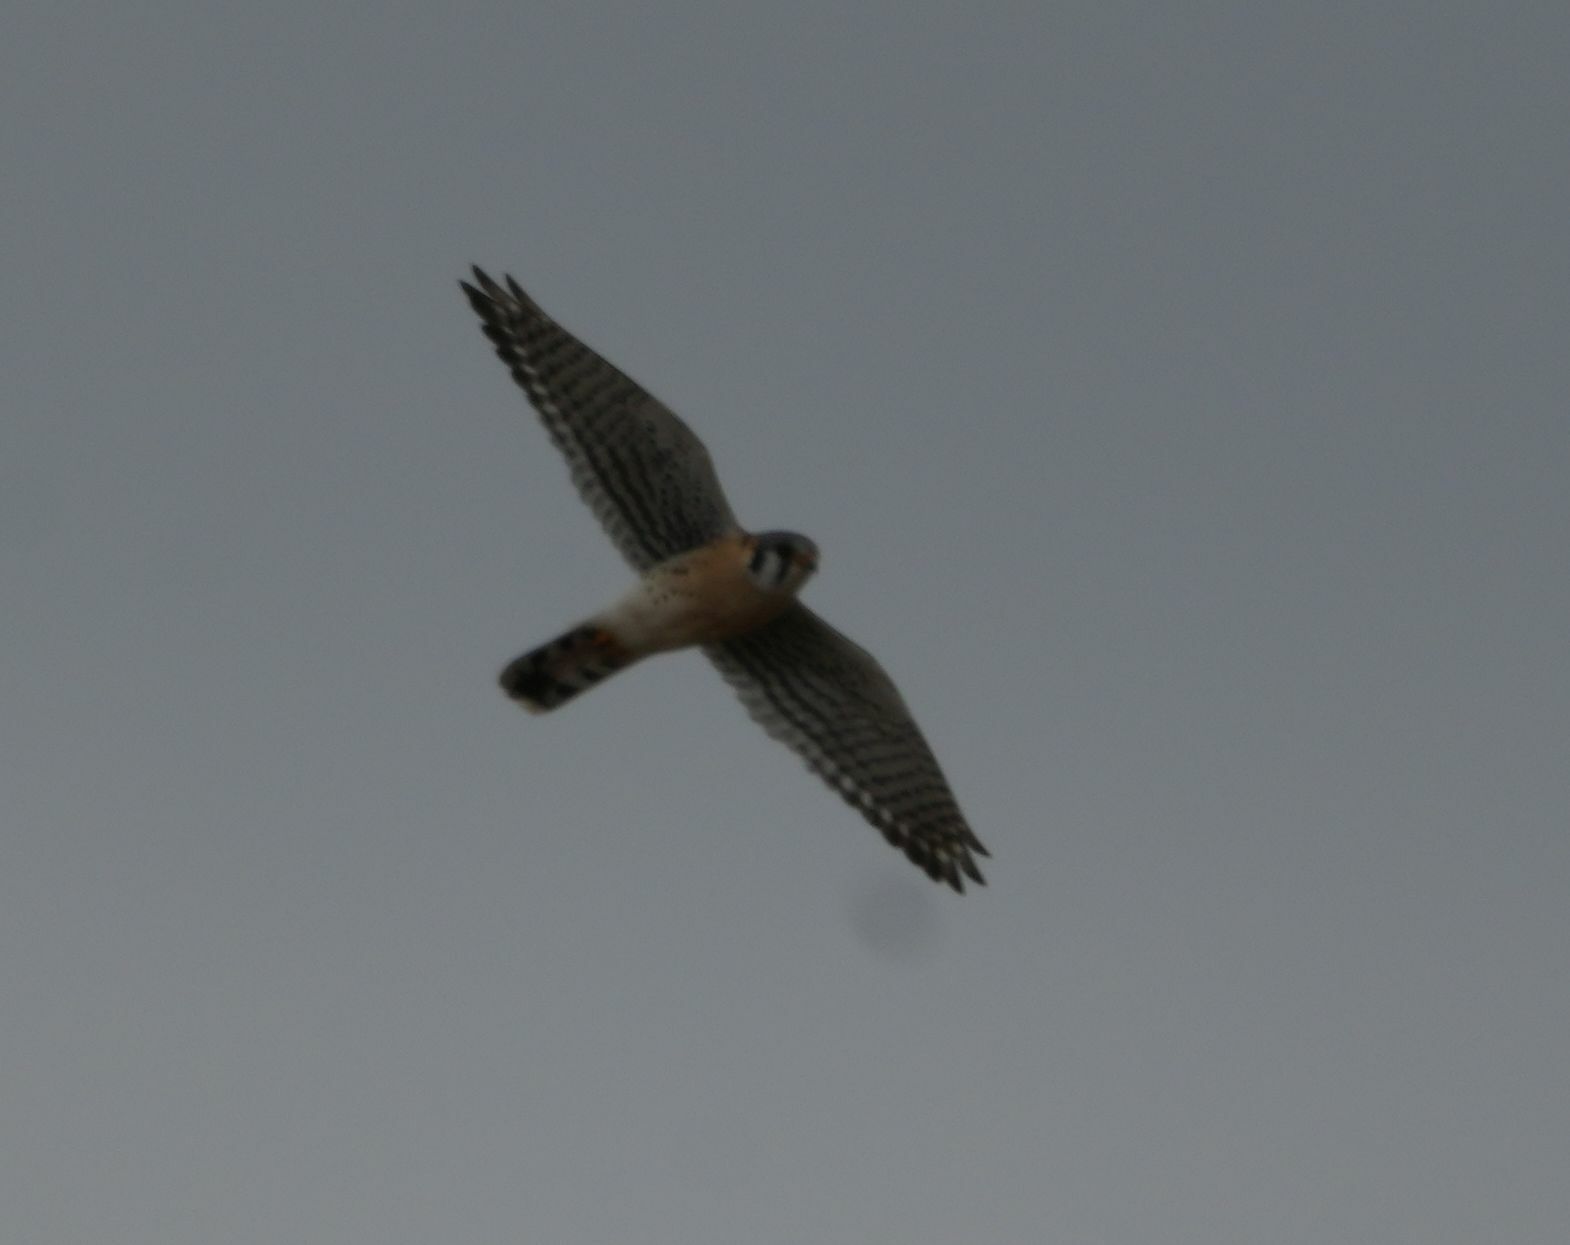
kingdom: Animalia
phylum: Chordata
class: Aves
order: Falconiformes
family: Falconidae
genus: Falco
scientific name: Falco sparverius
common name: American kestrel
